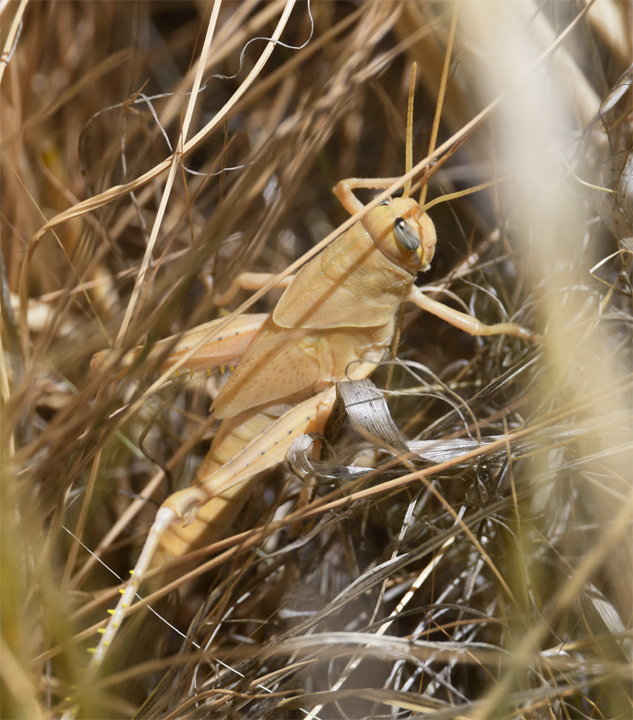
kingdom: Animalia
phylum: Arthropoda
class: Insecta
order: Orthoptera
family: Acrididae
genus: Schistocerca
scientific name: Schistocerca nitens
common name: Vagrant grasshopper
